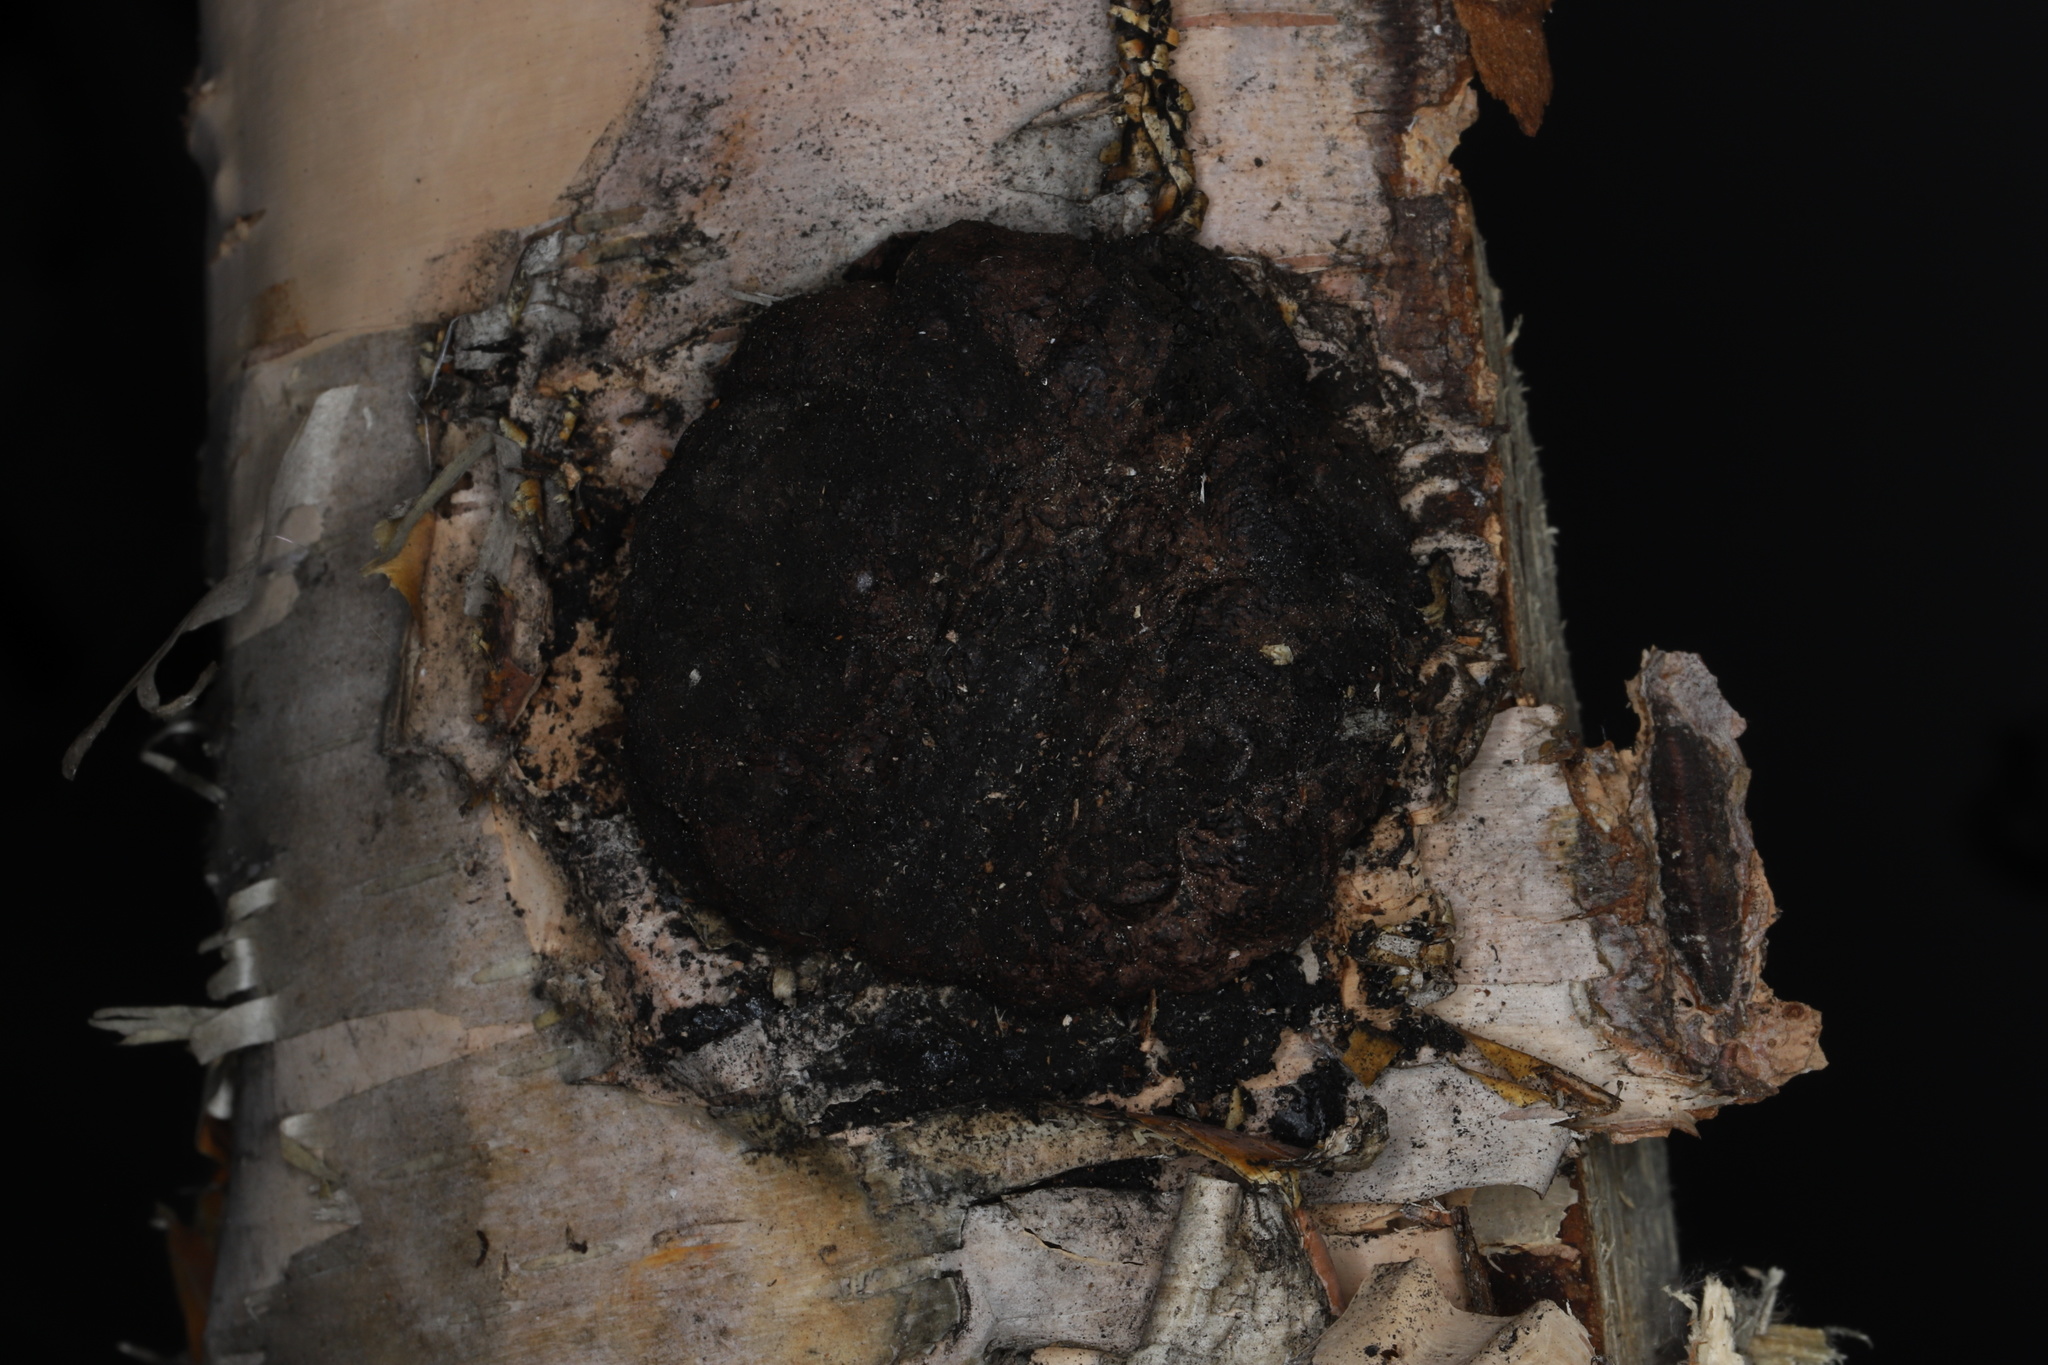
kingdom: Fungi
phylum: Basidiomycota
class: Agaricomycetes
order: Hymenochaetales
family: Hymenochaetaceae
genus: Inonotus
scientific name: Inonotus obliquus
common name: Chaga
